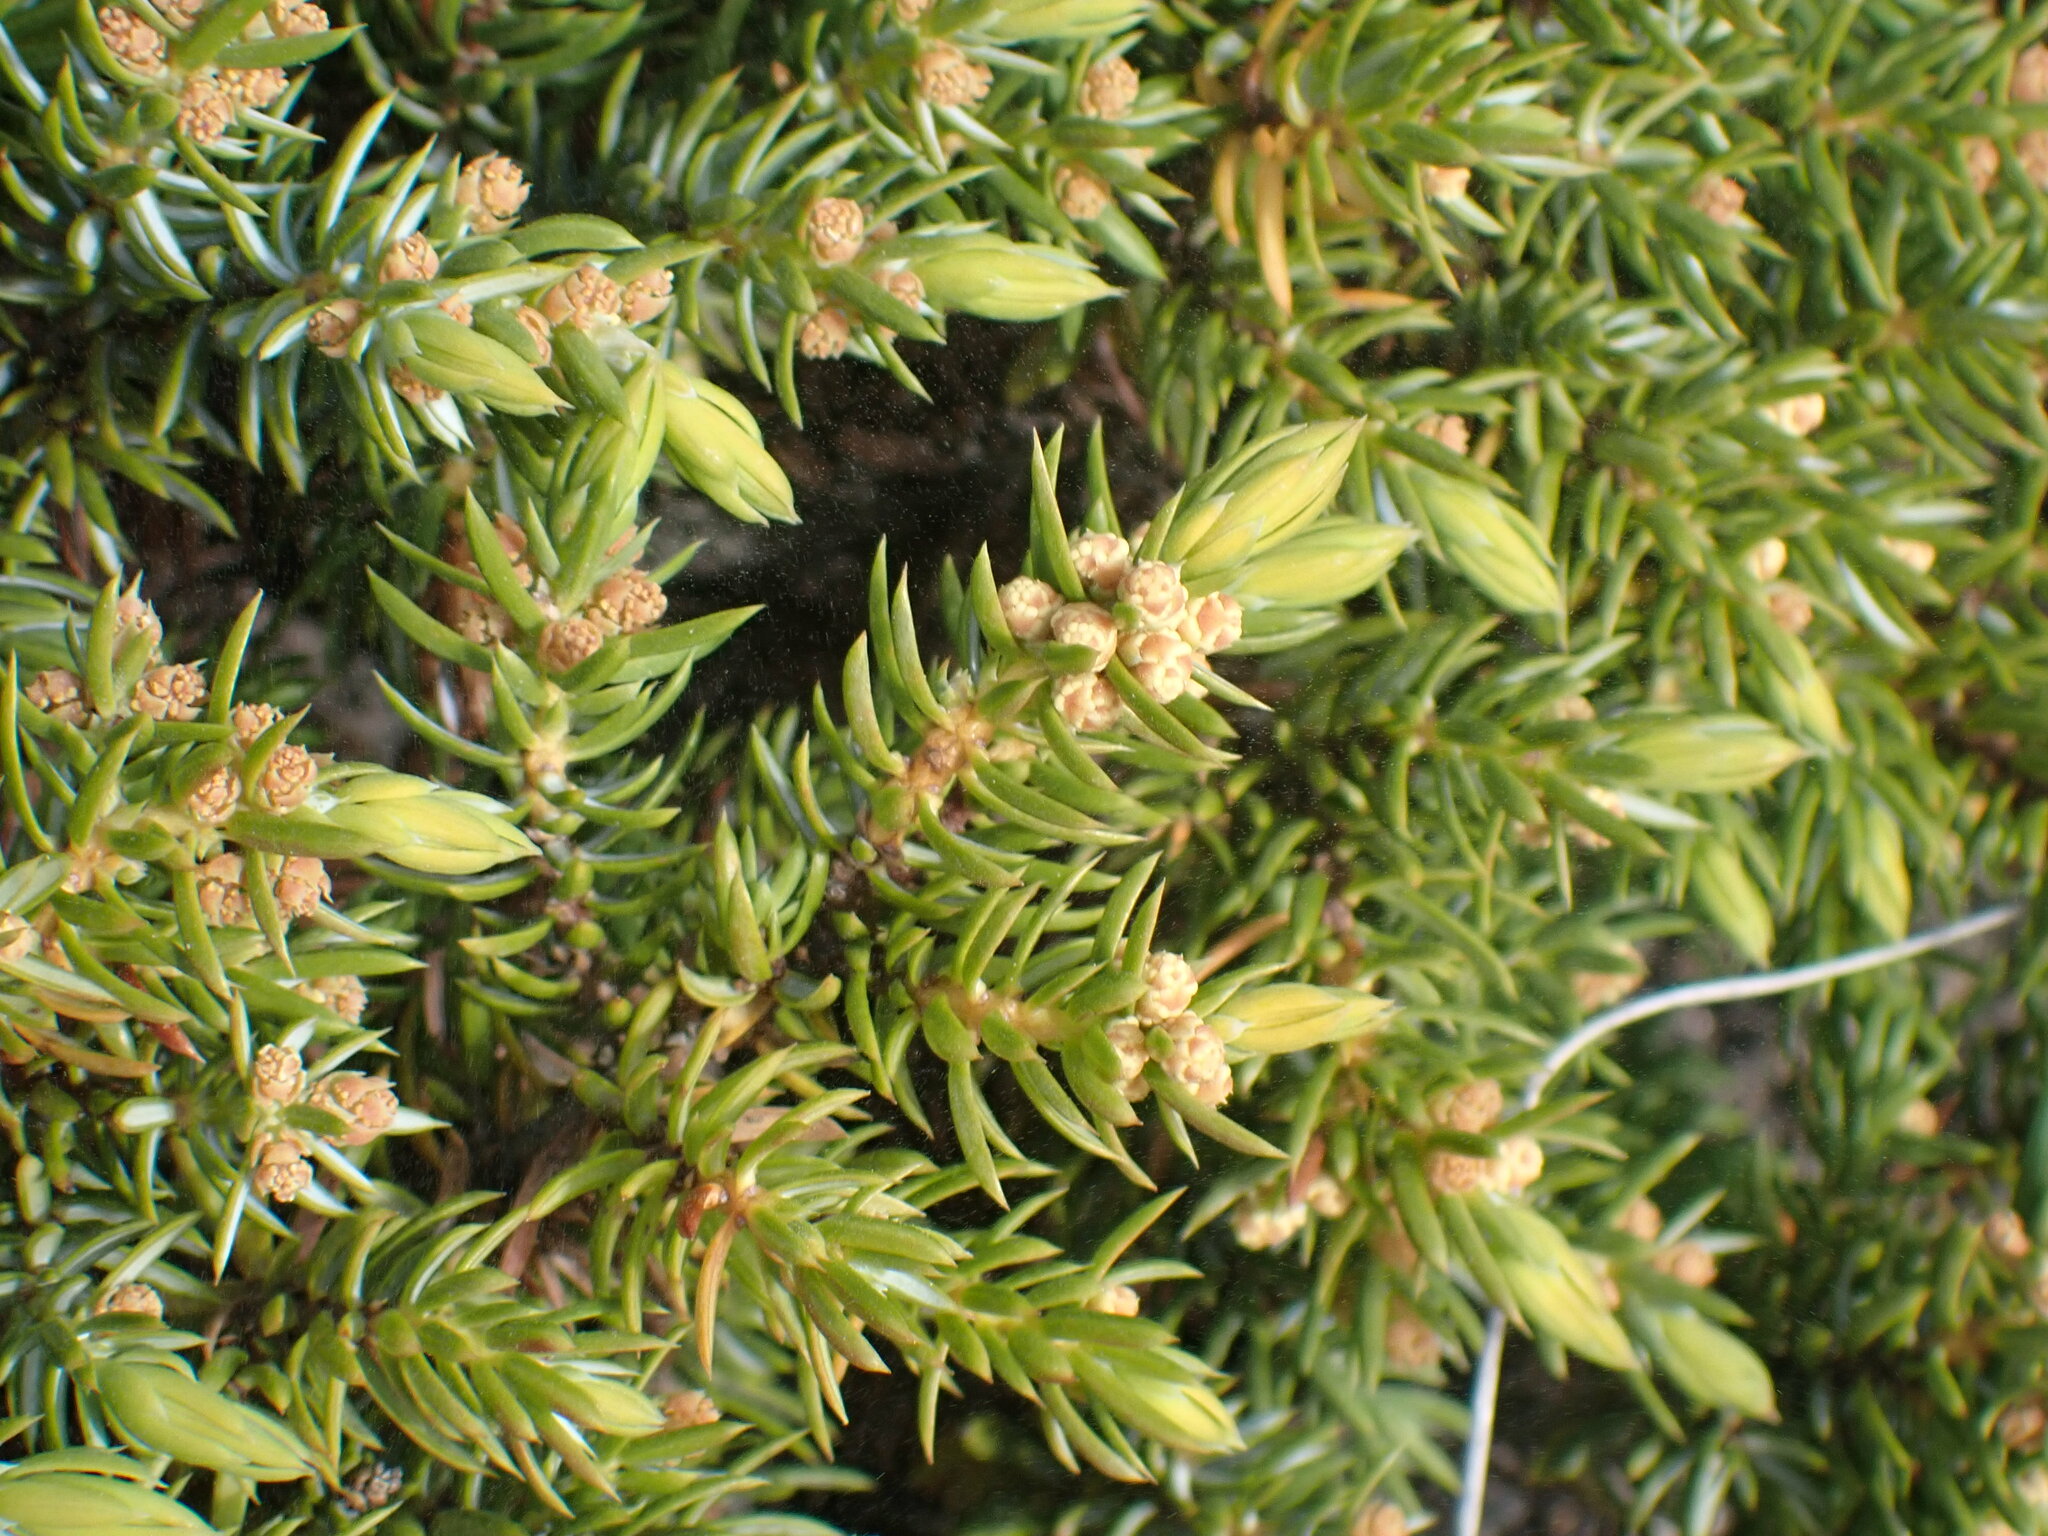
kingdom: Plantae
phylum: Tracheophyta
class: Pinopsida
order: Pinales
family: Cupressaceae
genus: Juniperus
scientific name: Juniperus communis
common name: Common juniper
